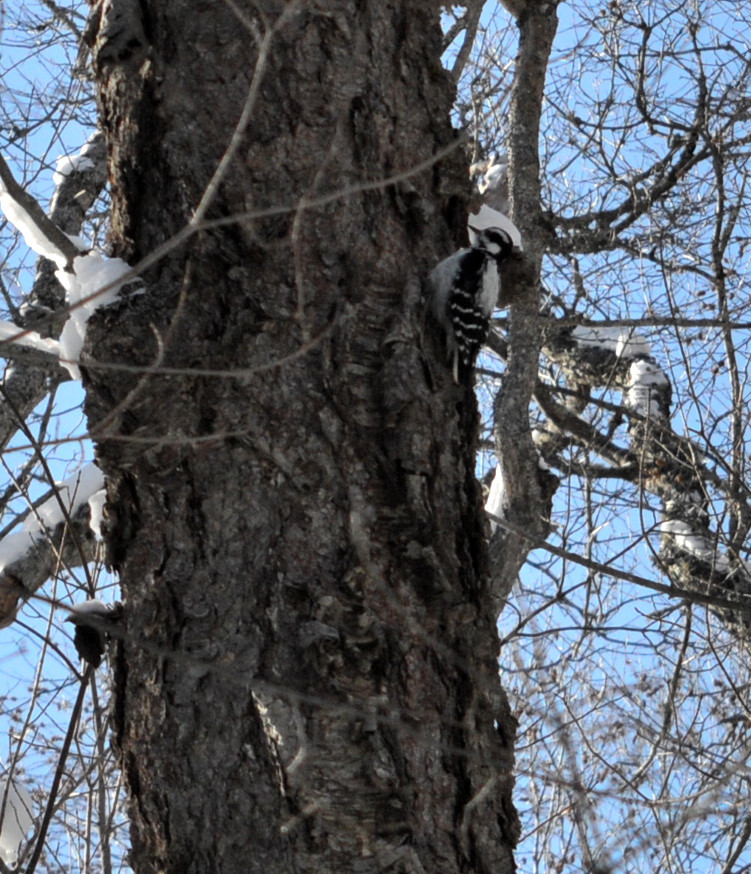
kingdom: Animalia
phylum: Chordata
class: Aves
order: Piciformes
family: Picidae
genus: Dryobates
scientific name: Dryobates pubescens
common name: Downy woodpecker
